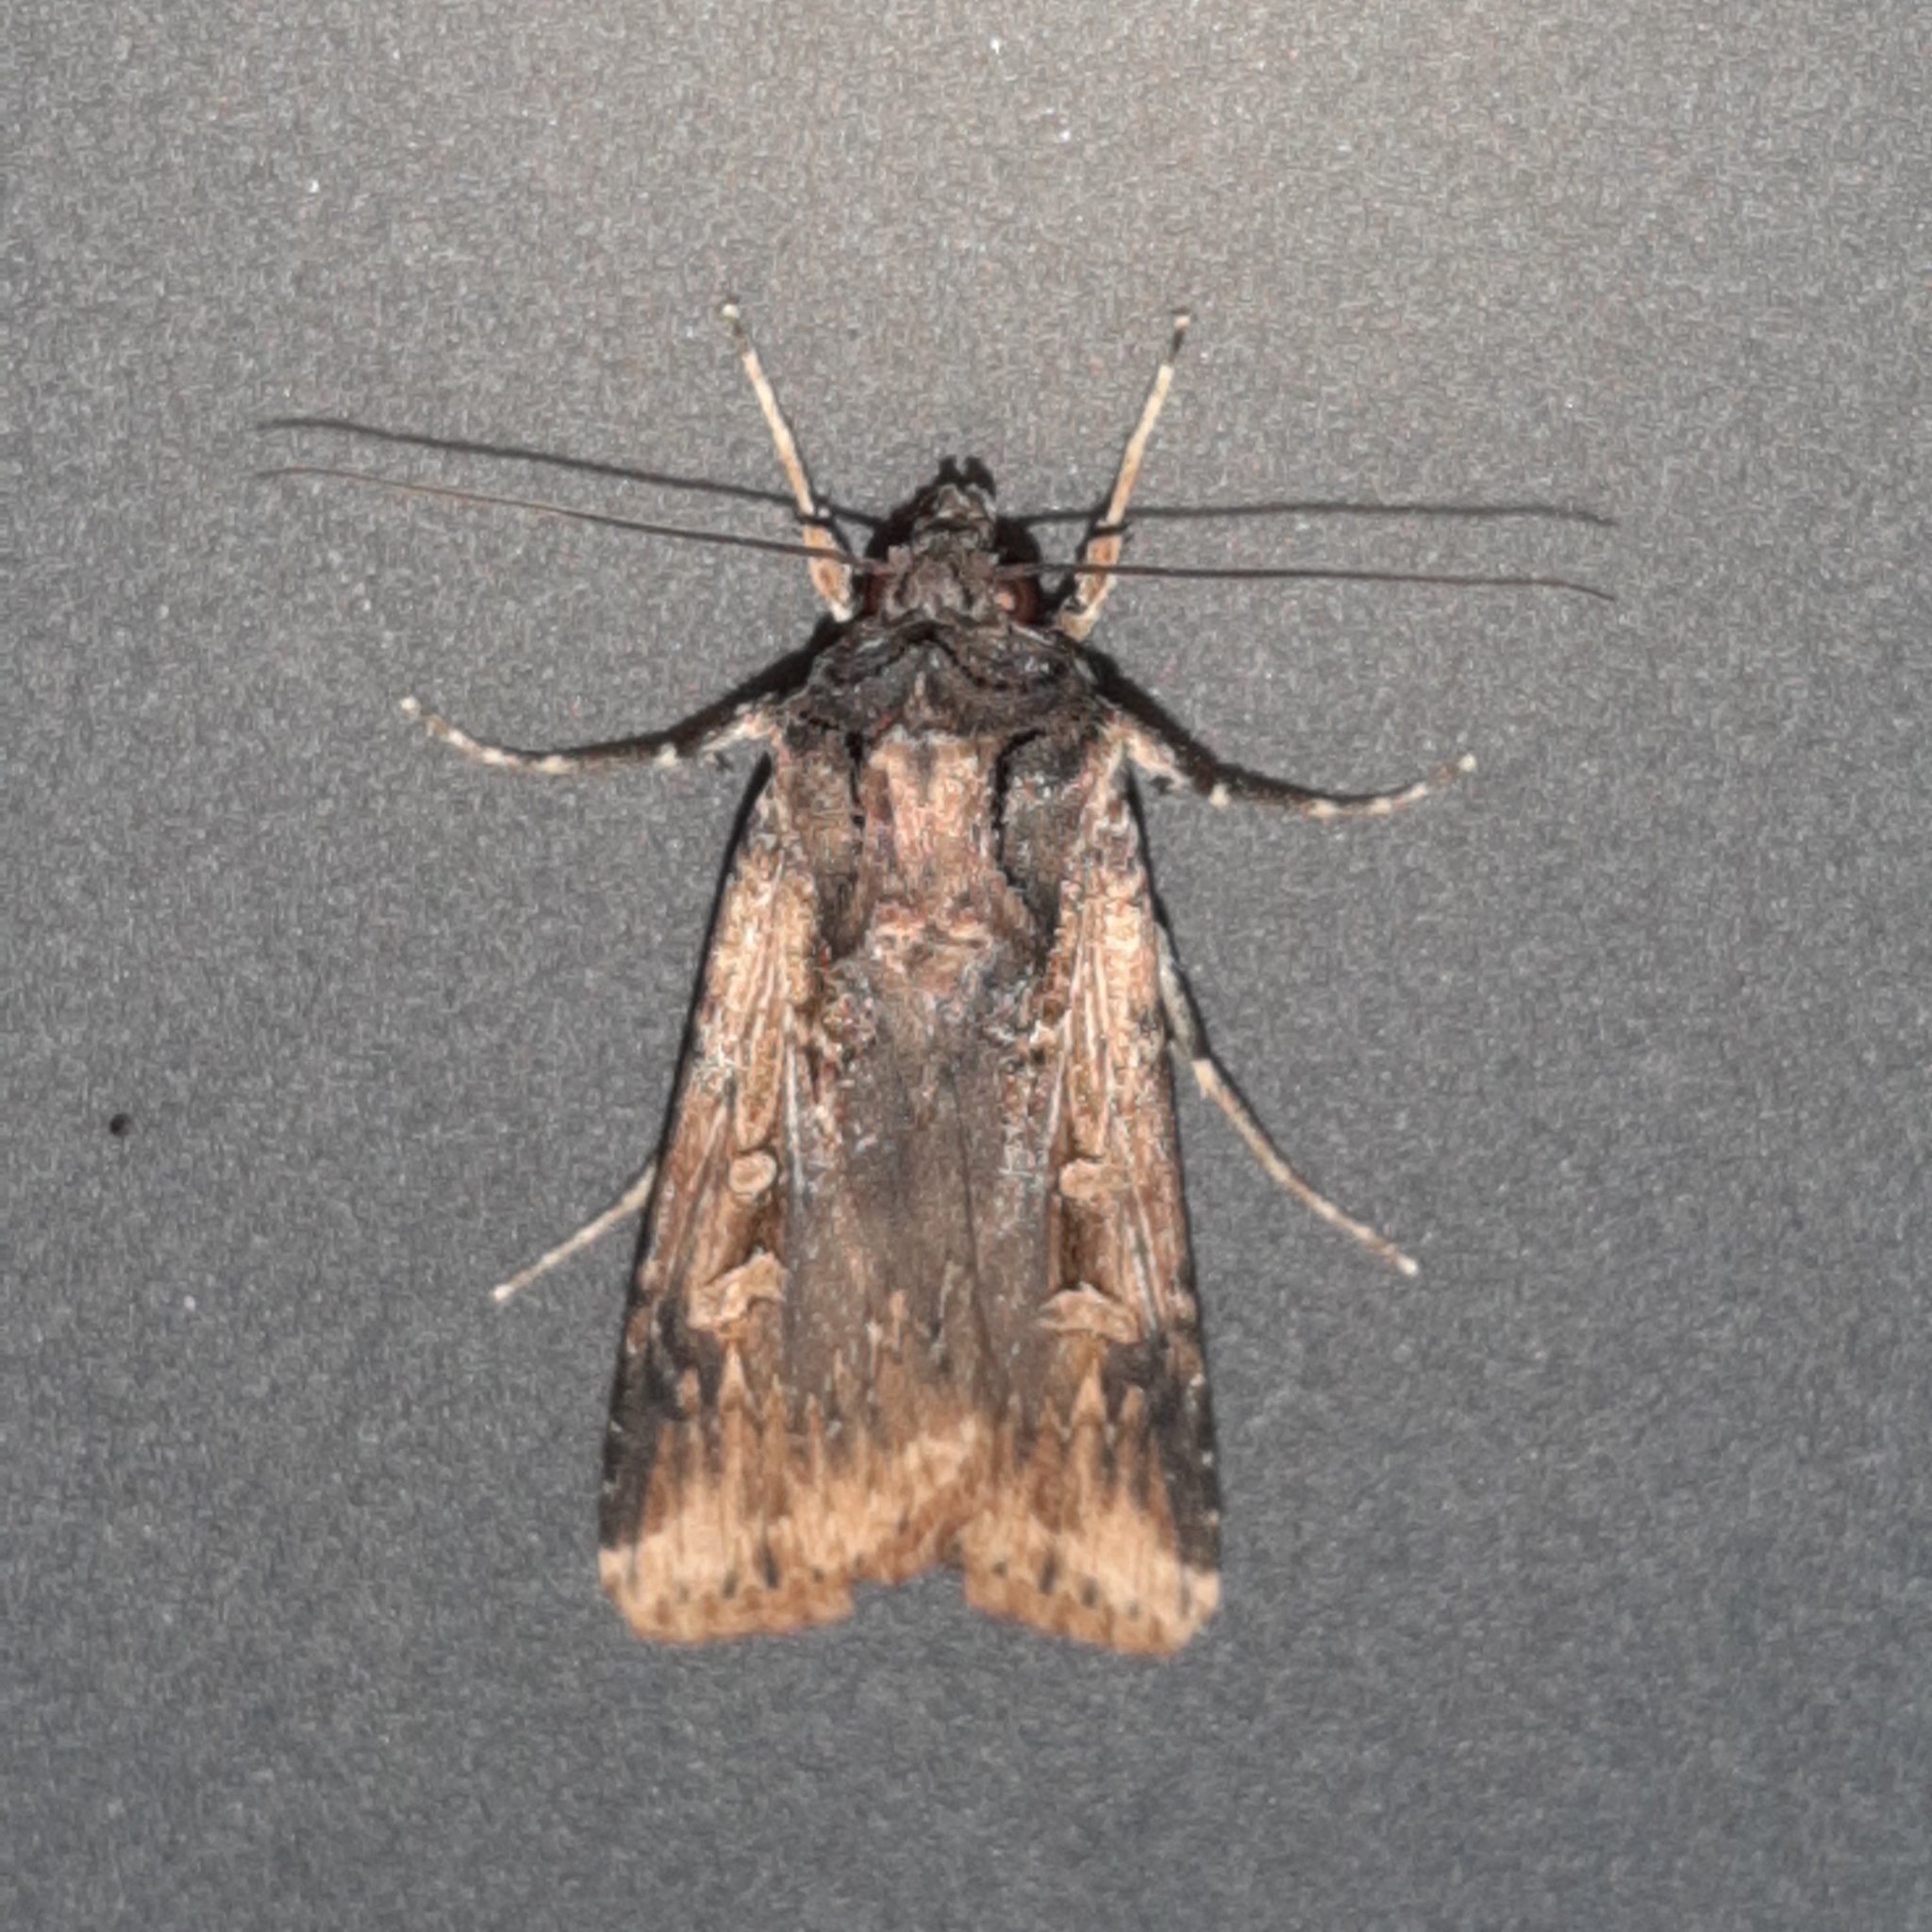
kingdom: Animalia
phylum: Arthropoda
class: Insecta
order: Lepidoptera
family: Noctuidae
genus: Feltia
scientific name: Feltia subterranea
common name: Granulate cutworm
